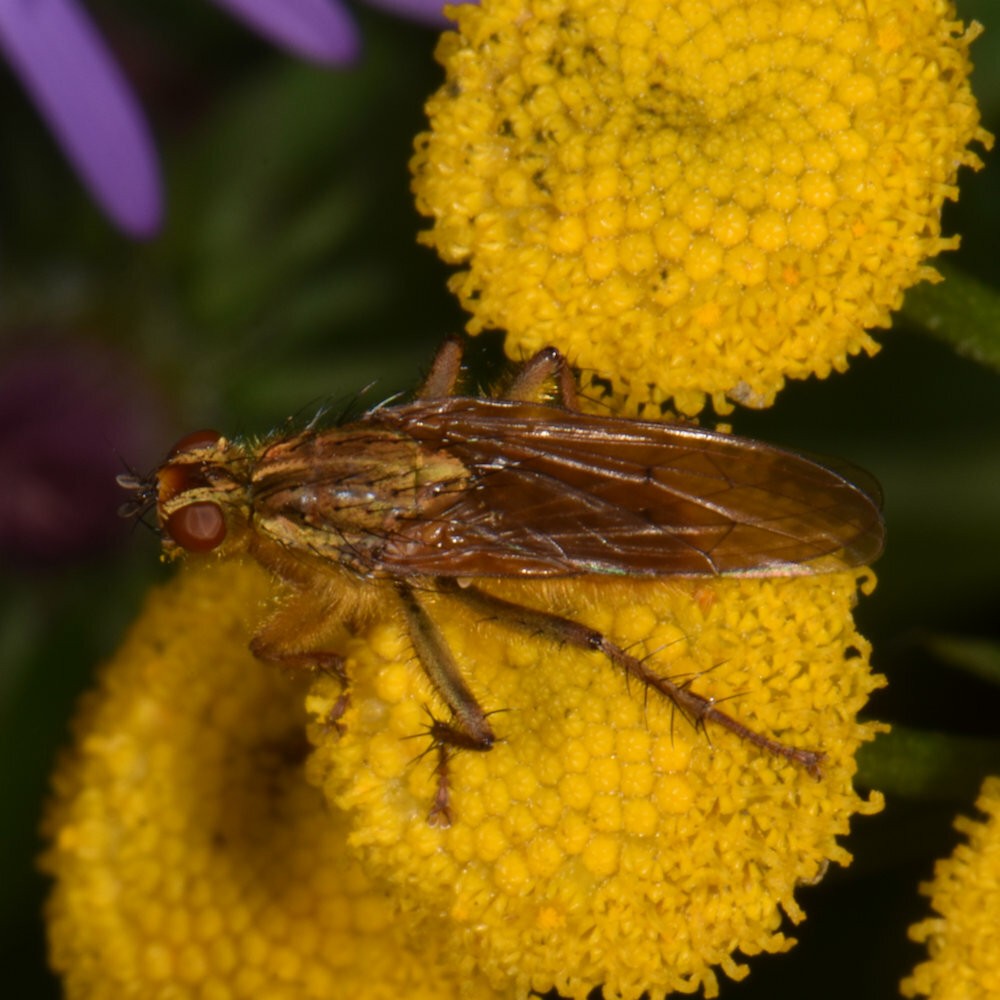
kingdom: Animalia
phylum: Arthropoda
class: Insecta
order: Diptera
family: Scathophagidae
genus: Scathophaga
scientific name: Scathophaga stercoraria
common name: Yellow dung fly
